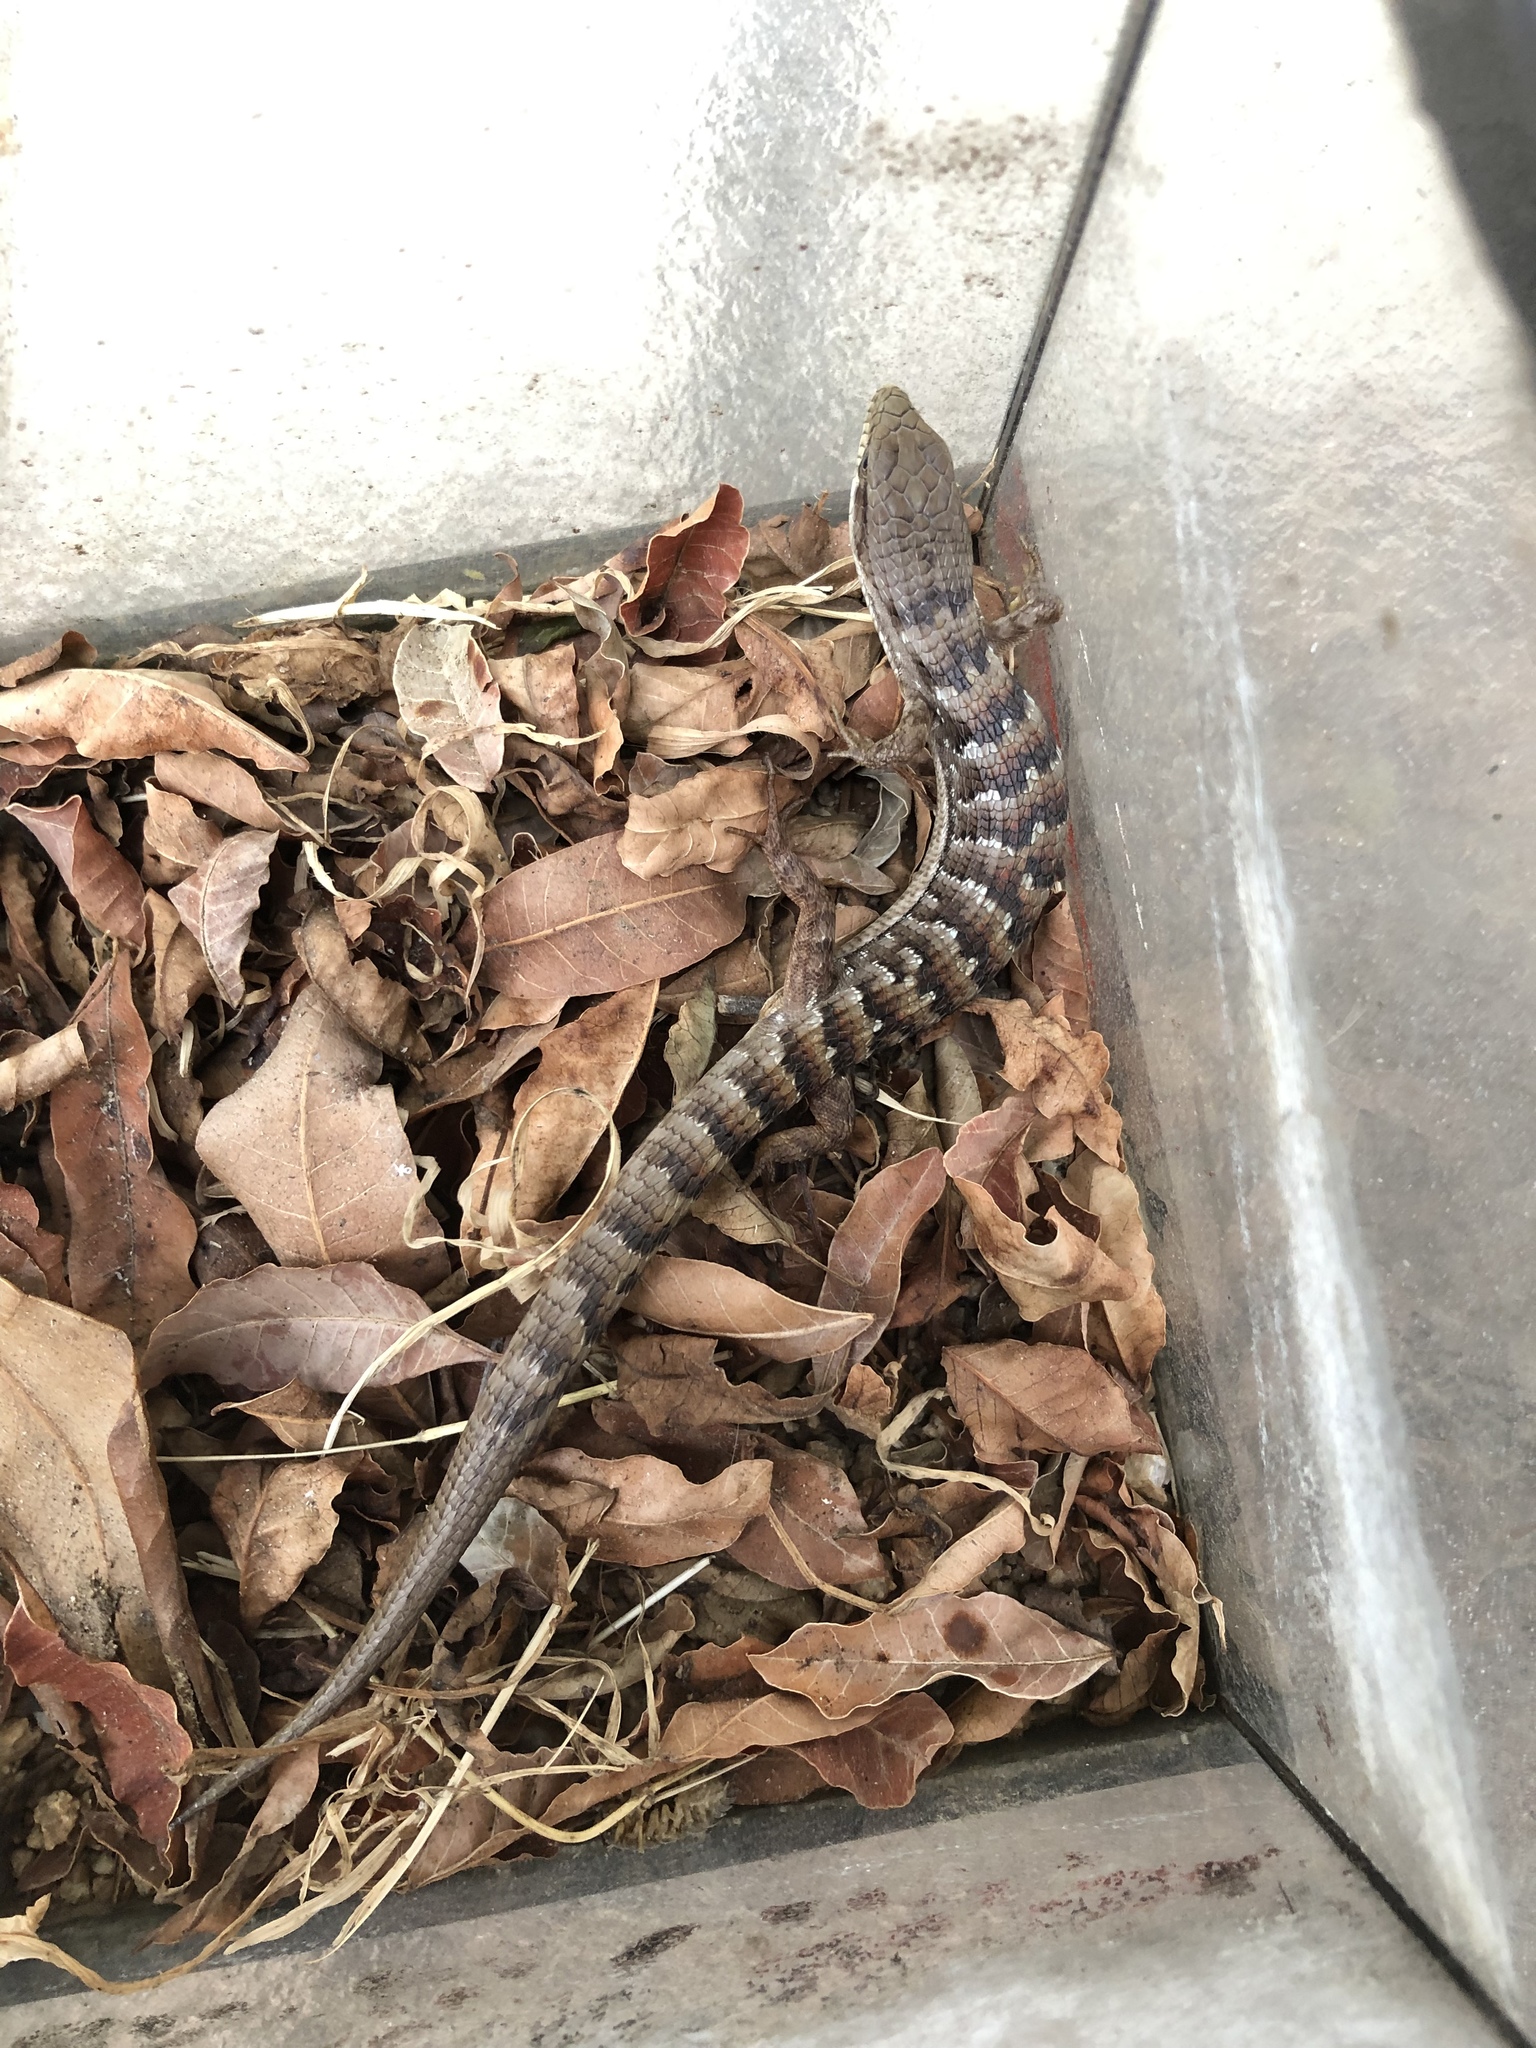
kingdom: Animalia
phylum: Chordata
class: Squamata
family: Anguidae
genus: Elgaria
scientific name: Elgaria multicarinata
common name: Southern alligator lizard
